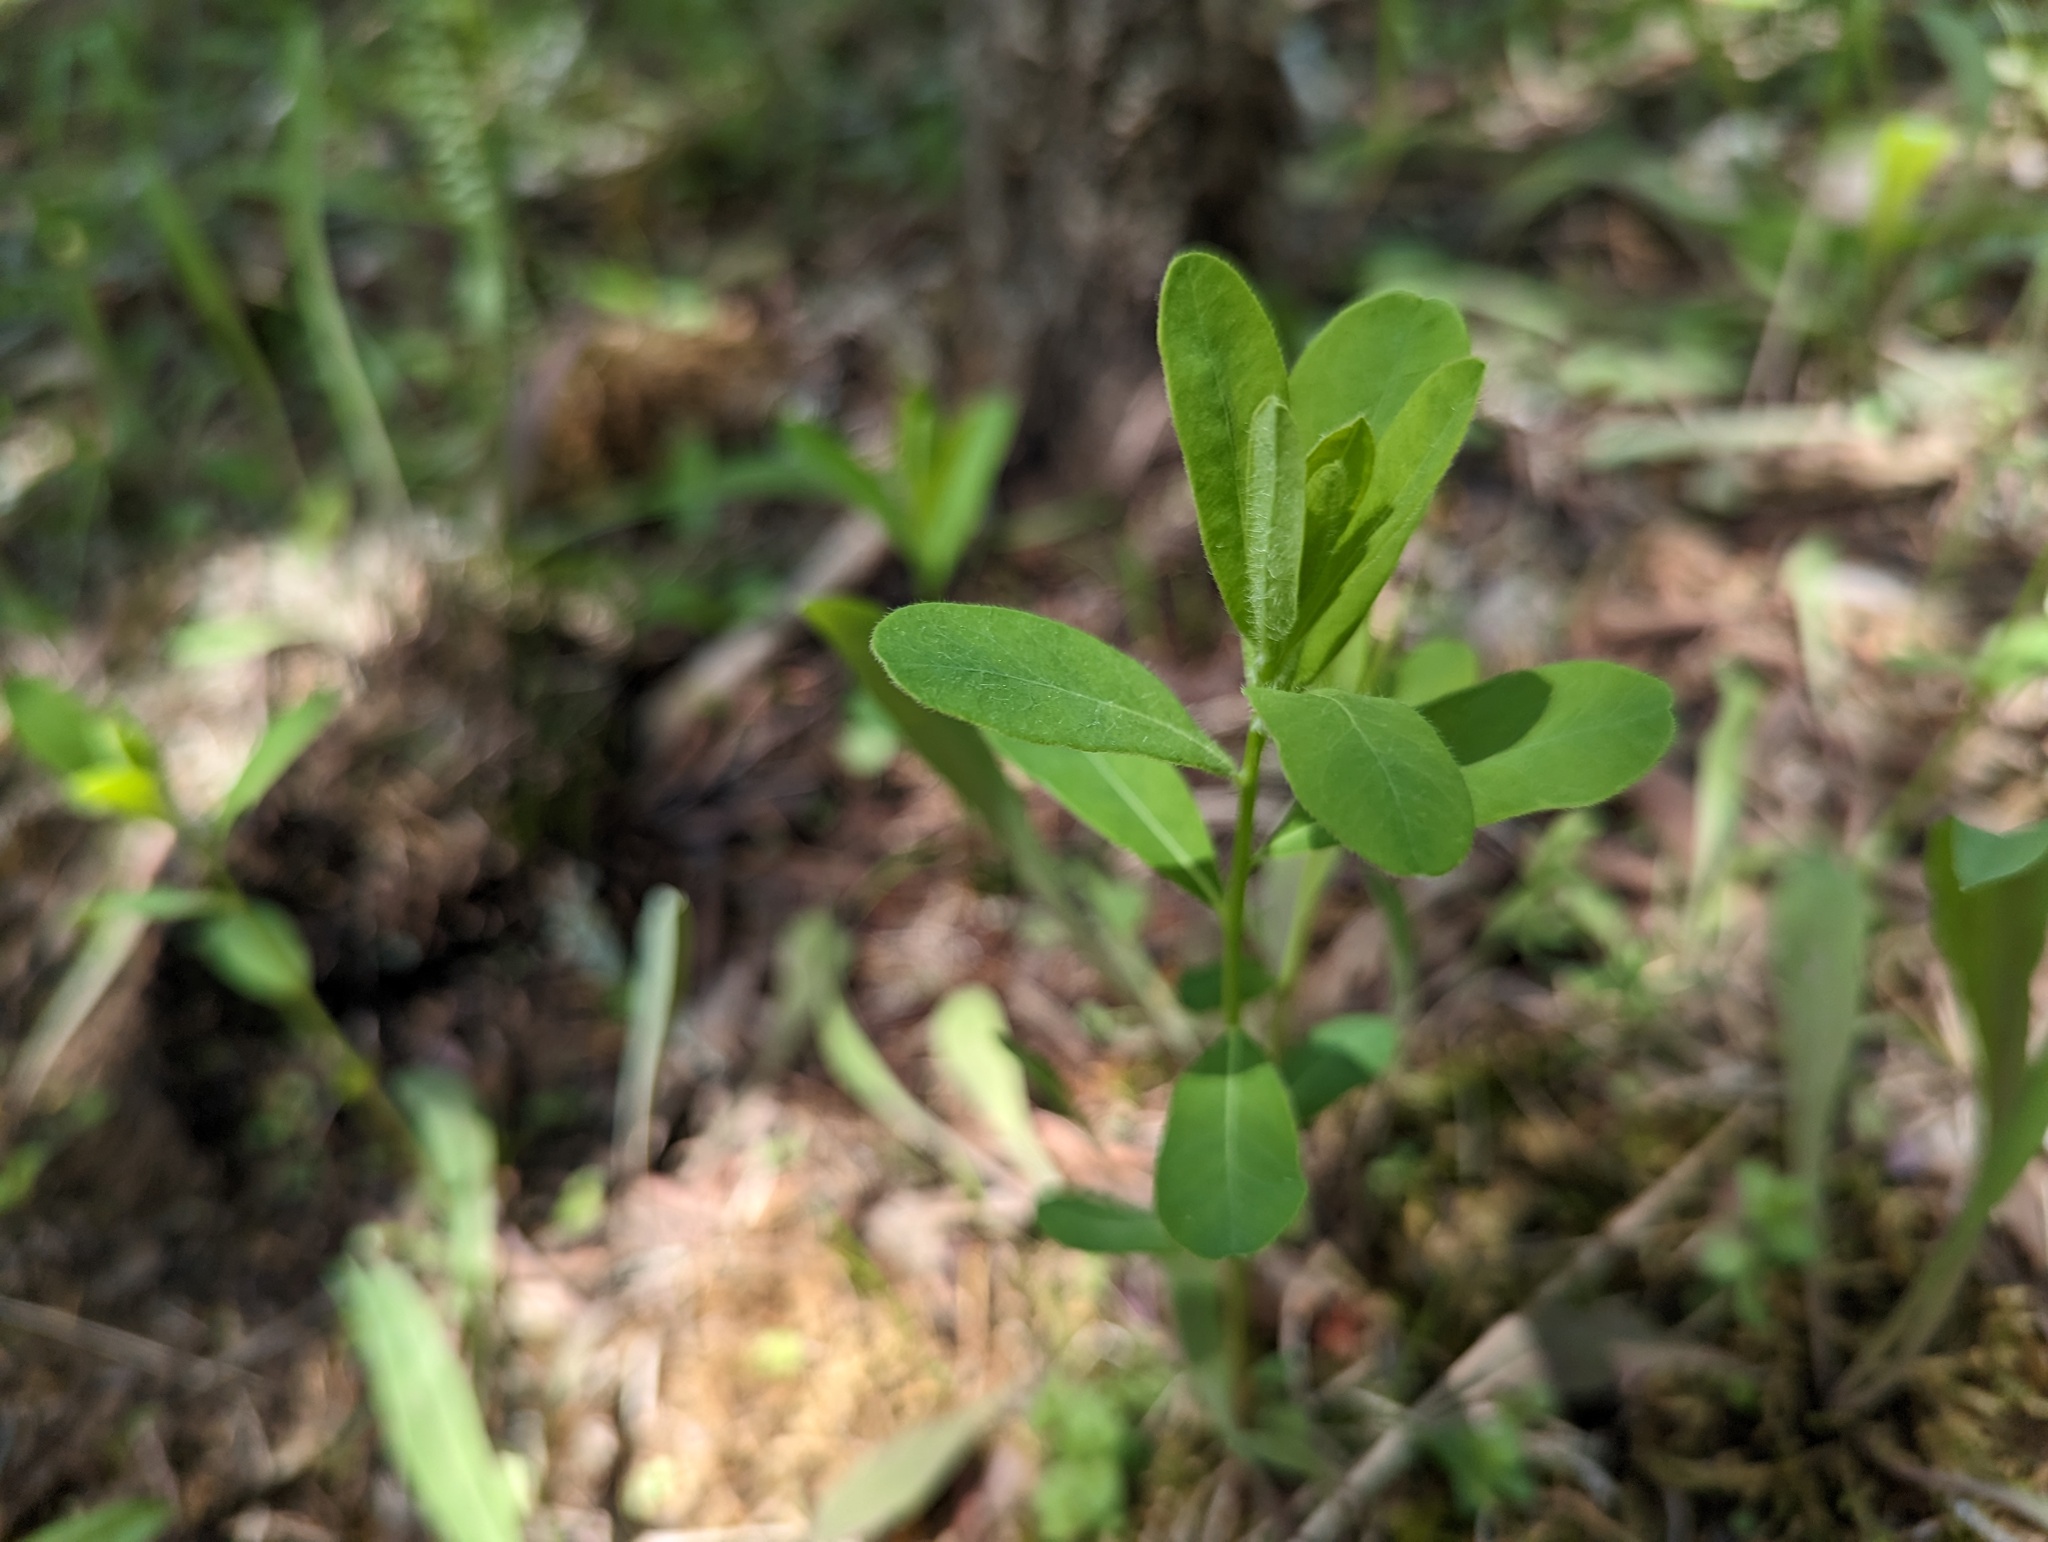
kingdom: Plantae
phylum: Tracheophyta
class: Magnoliopsida
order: Malpighiales
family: Euphorbiaceae
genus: Euphorbia
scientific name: Euphorbia corollata
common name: Flowering spurge
